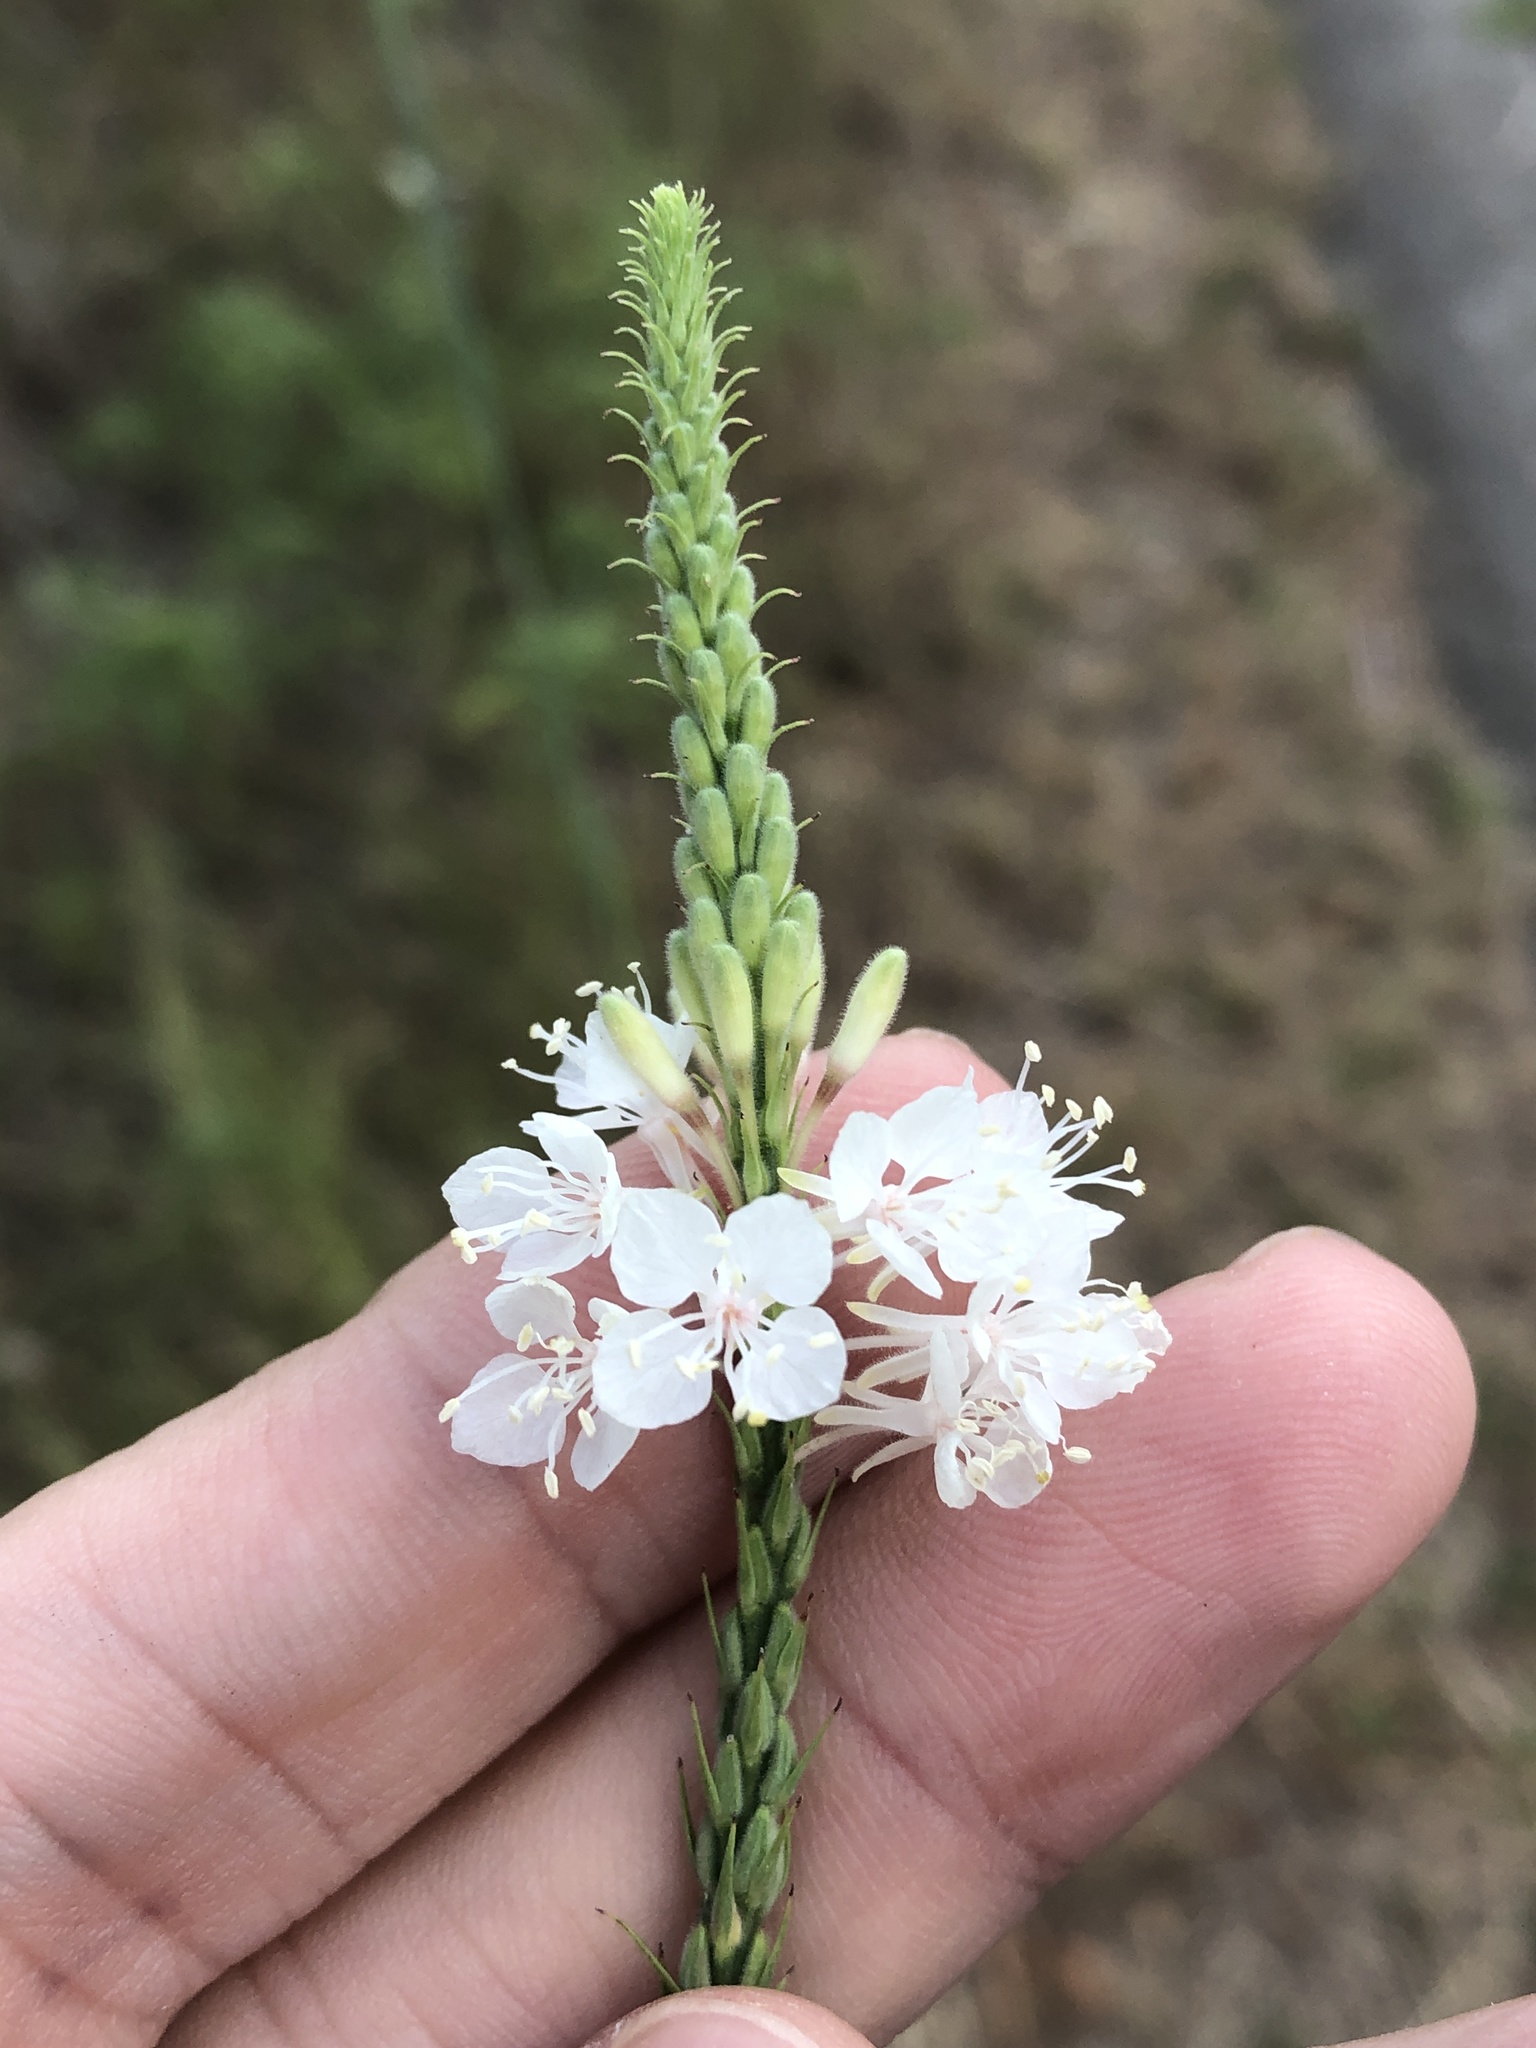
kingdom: Plantae
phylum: Tracheophyta
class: Magnoliopsida
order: Myrtales
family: Onagraceae
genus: Oenothera
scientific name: Oenothera glaucifolia
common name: False gaura
